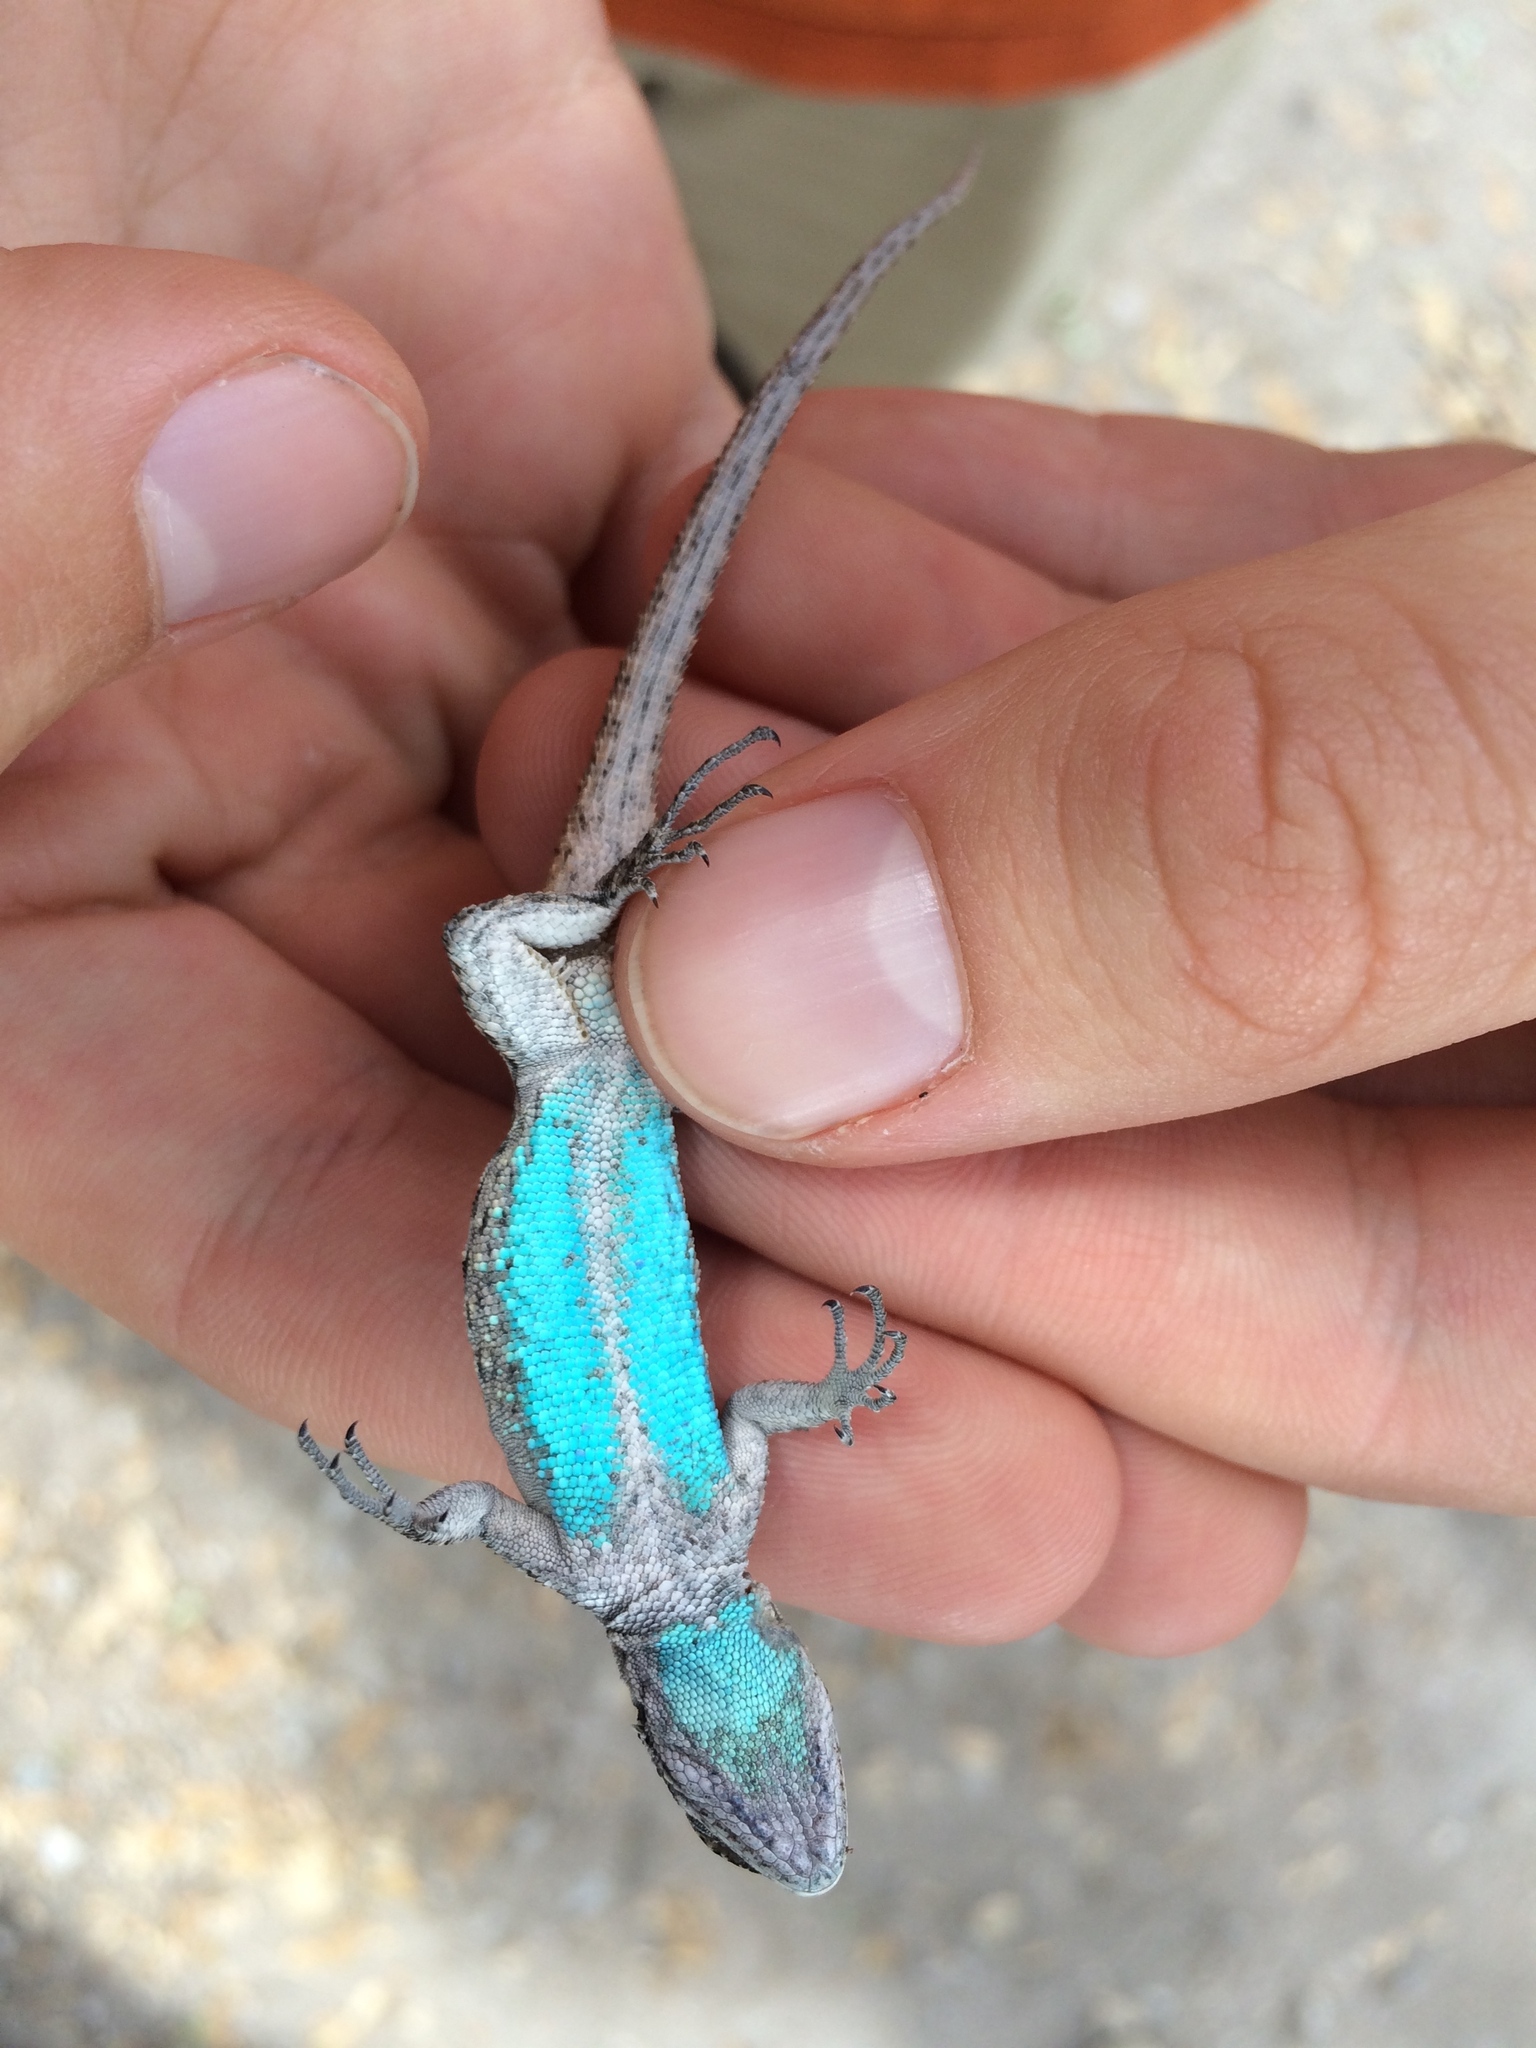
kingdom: Animalia
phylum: Chordata
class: Squamata
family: Phrynosomatidae
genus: Urosaurus
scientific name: Urosaurus ornatus
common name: Ornate tree lizard
